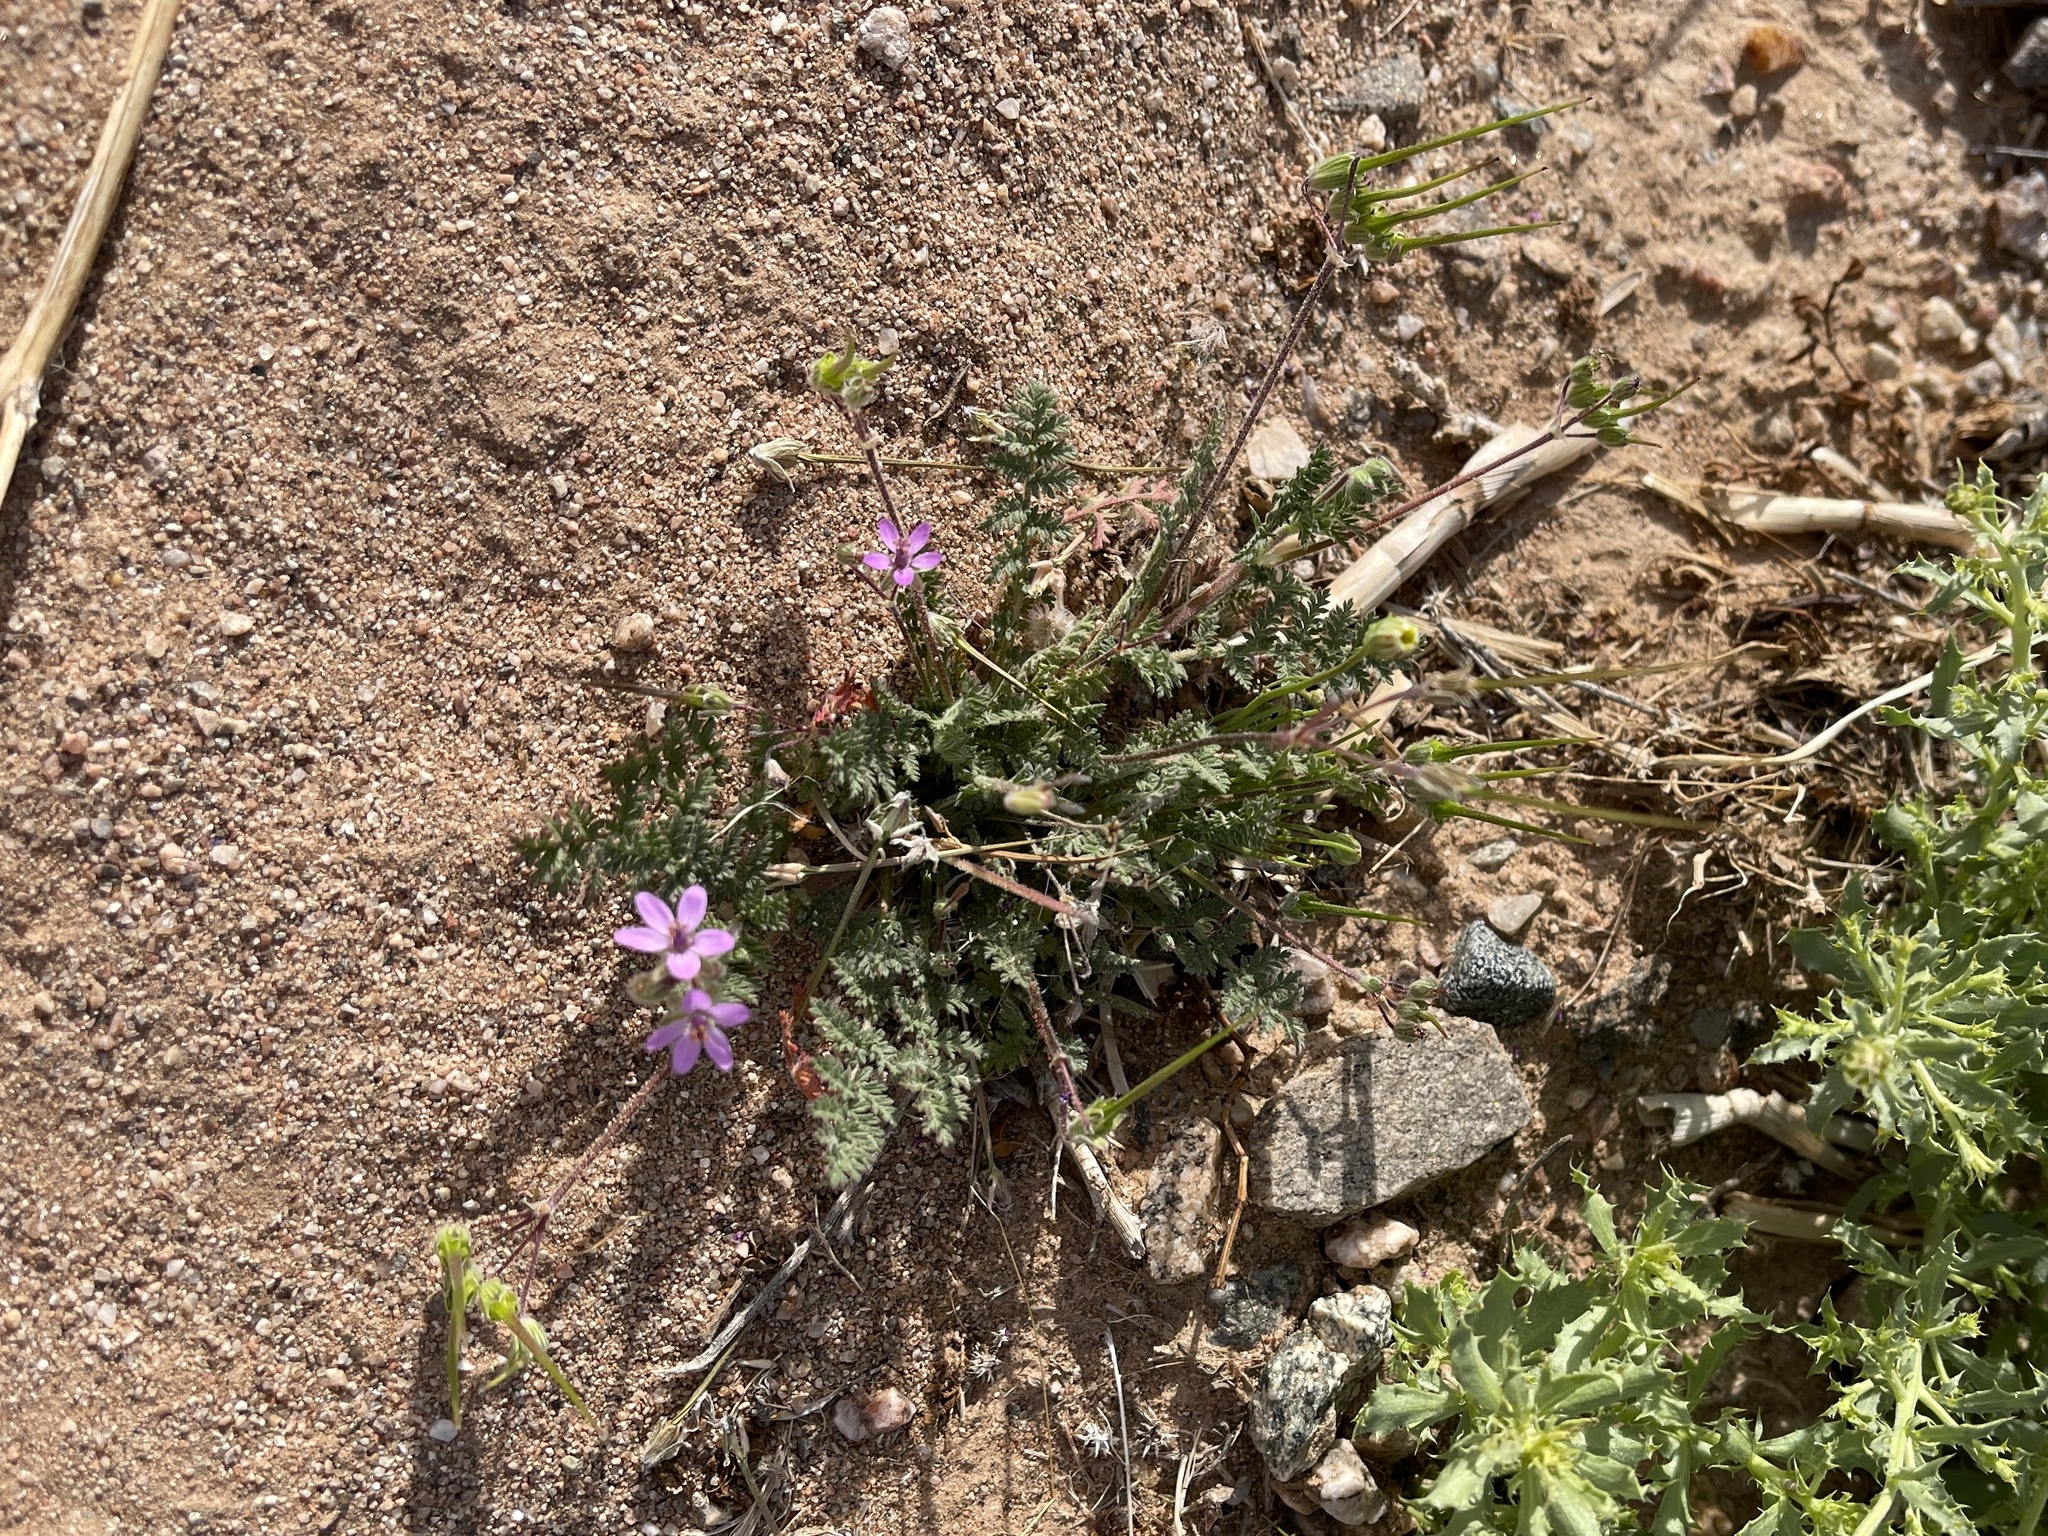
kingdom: Plantae
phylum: Tracheophyta
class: Magnoliopsida
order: Geraniales
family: Geraniaceae
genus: Erodium
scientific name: Erodium cicutarium
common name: Common stork's-bill
